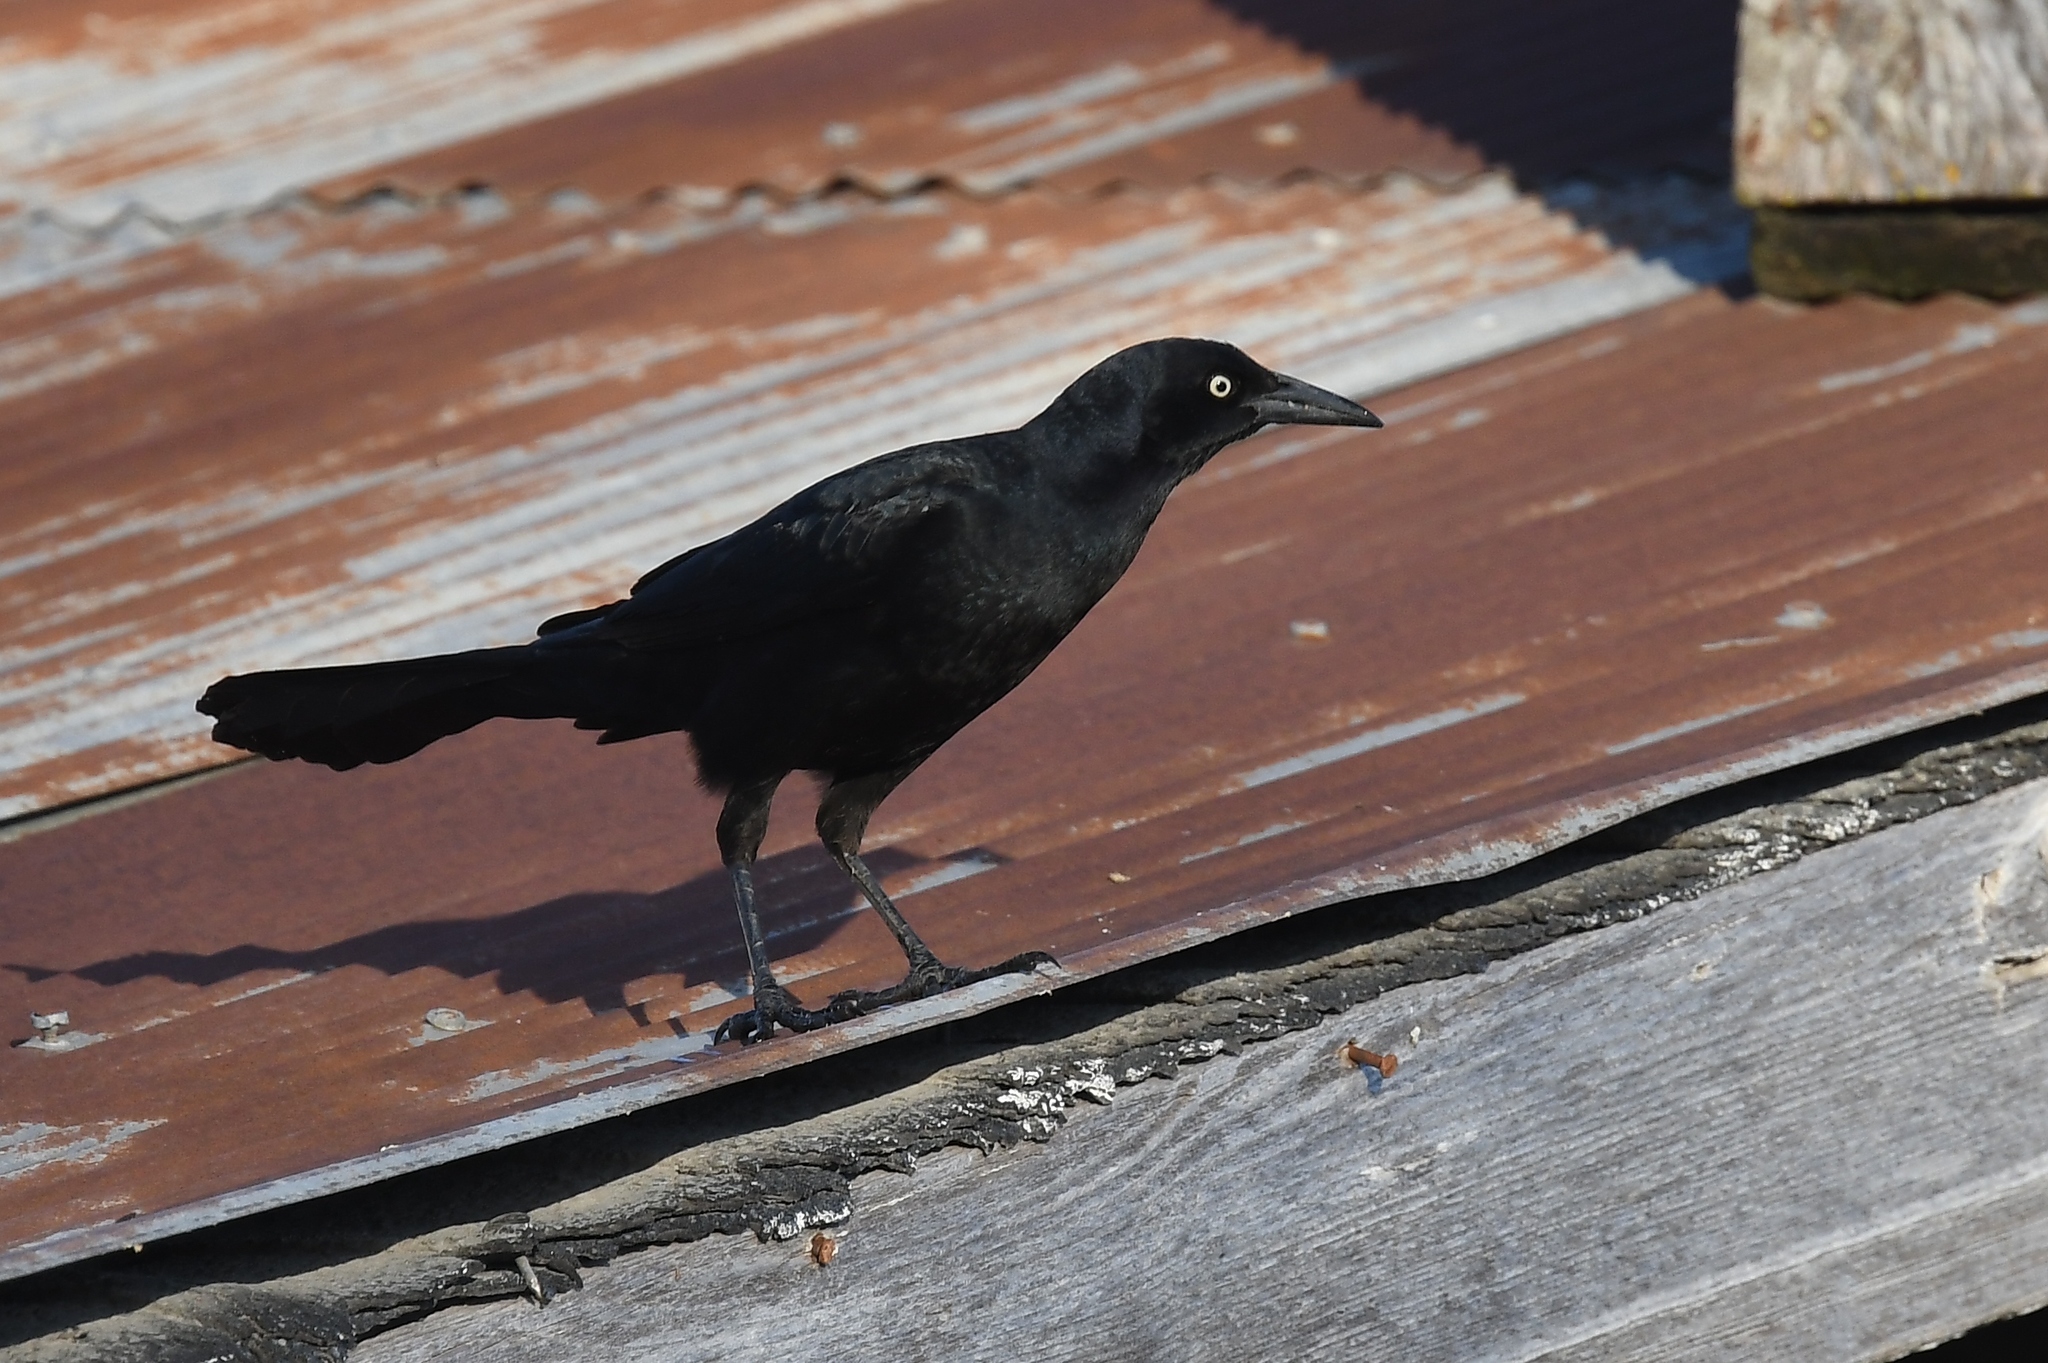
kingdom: Animalia
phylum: Chordata
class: Aves
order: Passeriformes
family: Icteridae
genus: Quiscalus
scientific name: Quiscalus mexicanus
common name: Great-tailed grackle
